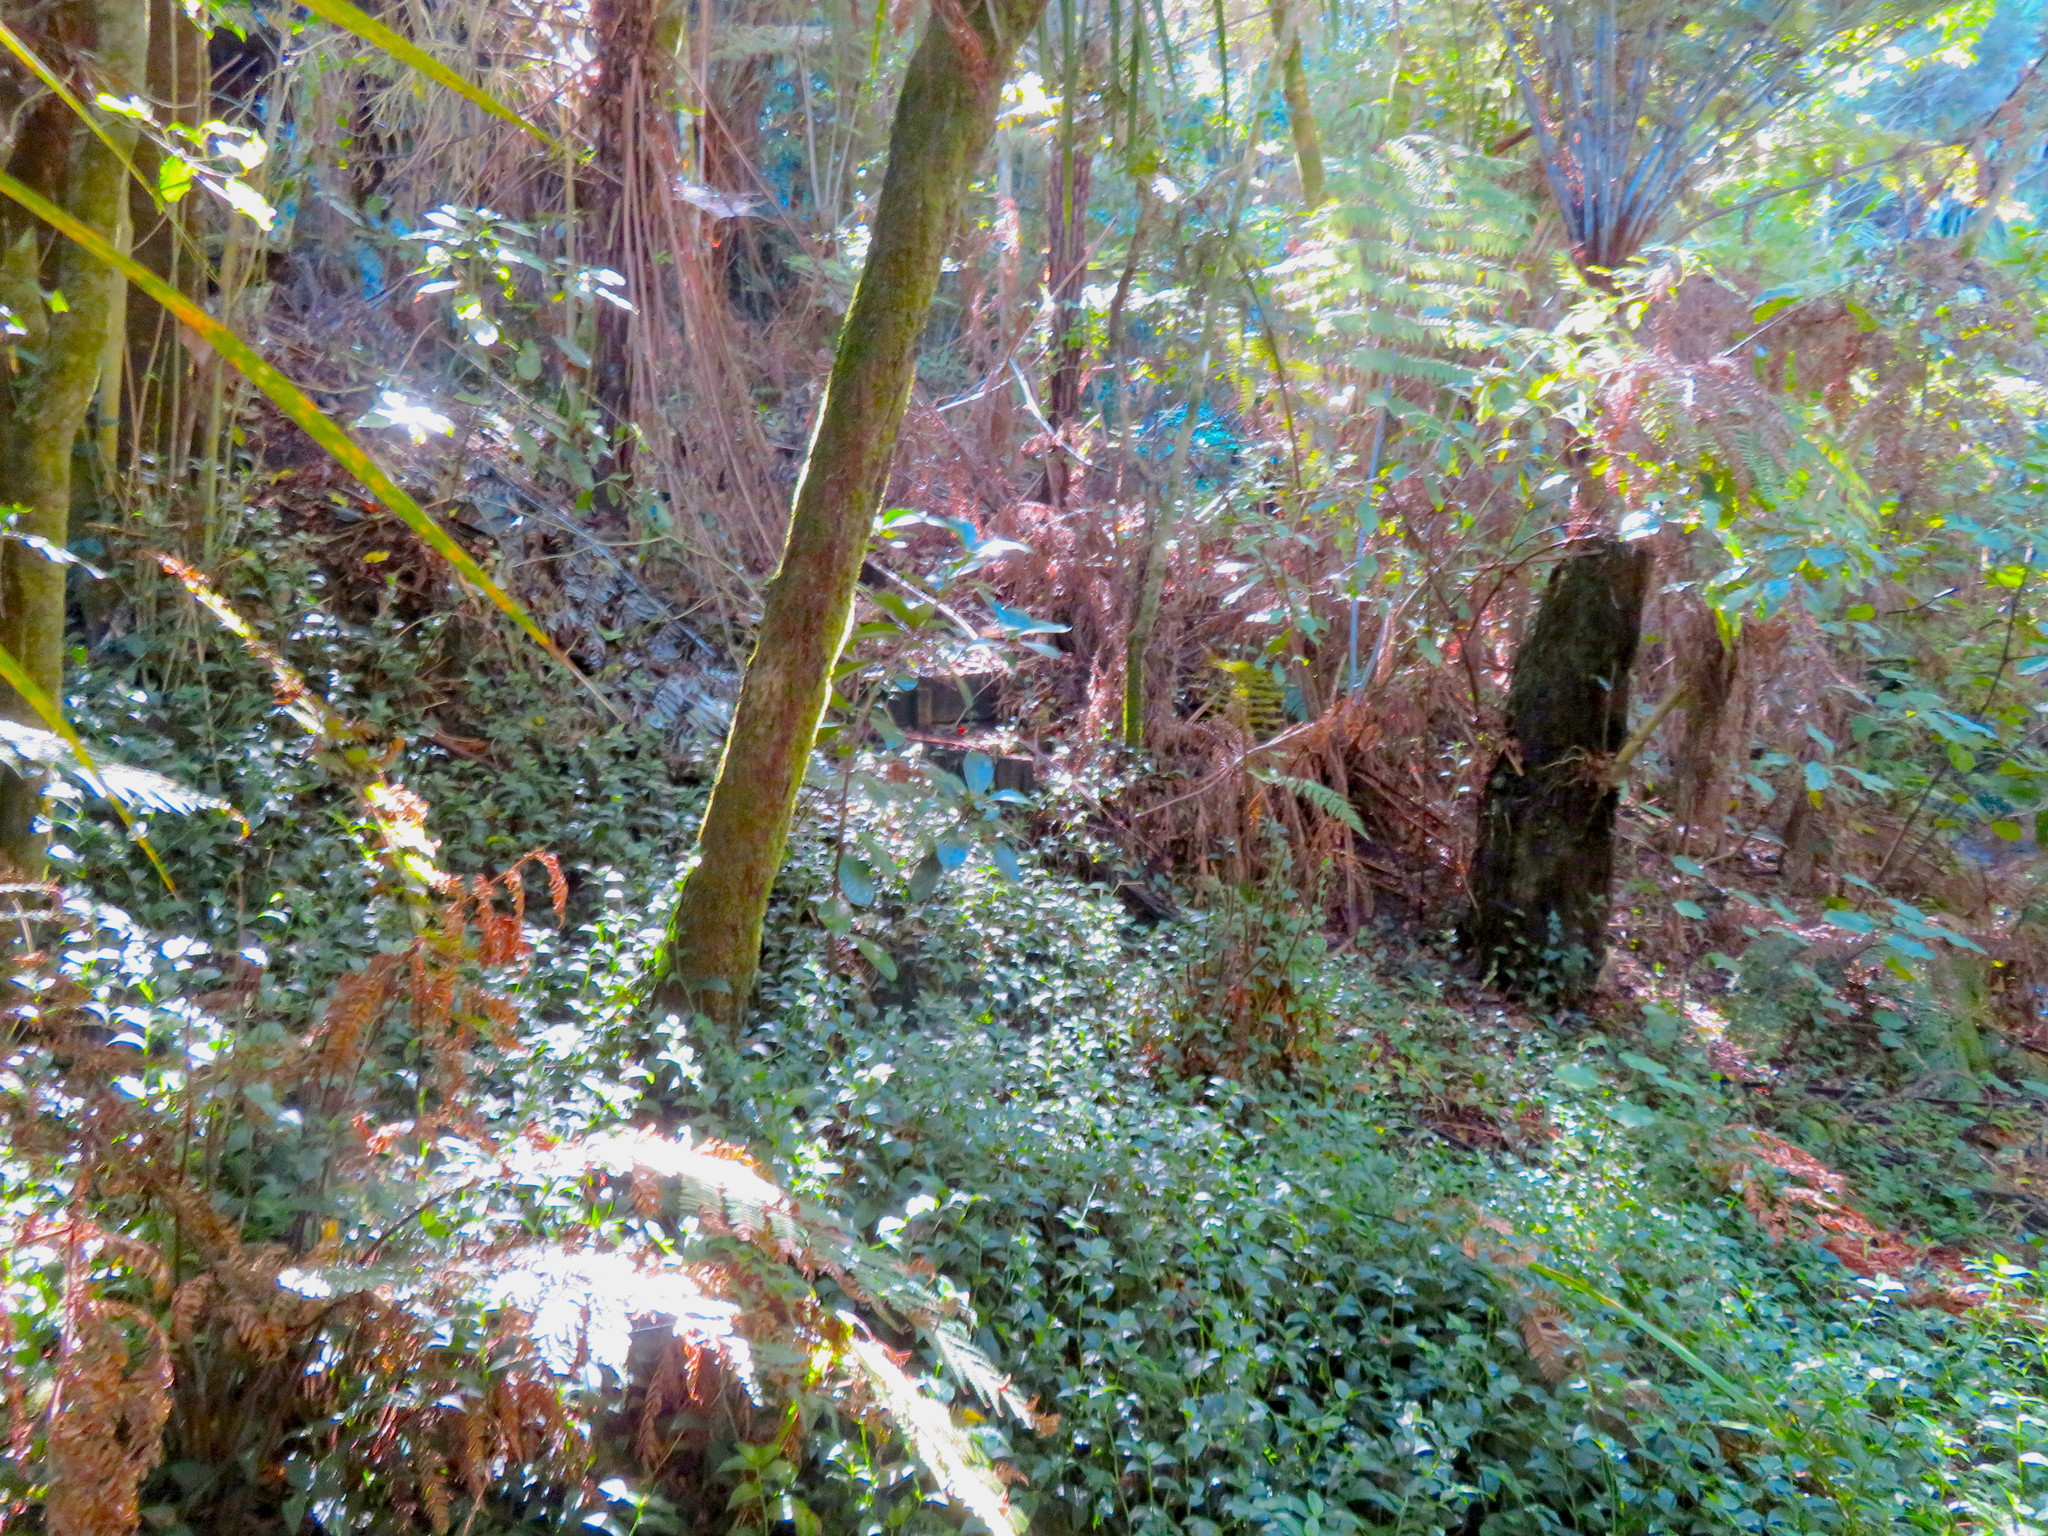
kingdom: Plantae
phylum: Tracheophyta
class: Liliopsida
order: Commelinales
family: Commelinaceae
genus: Tradescantia
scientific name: Tradescantia fluminensis
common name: Wandering-jew
